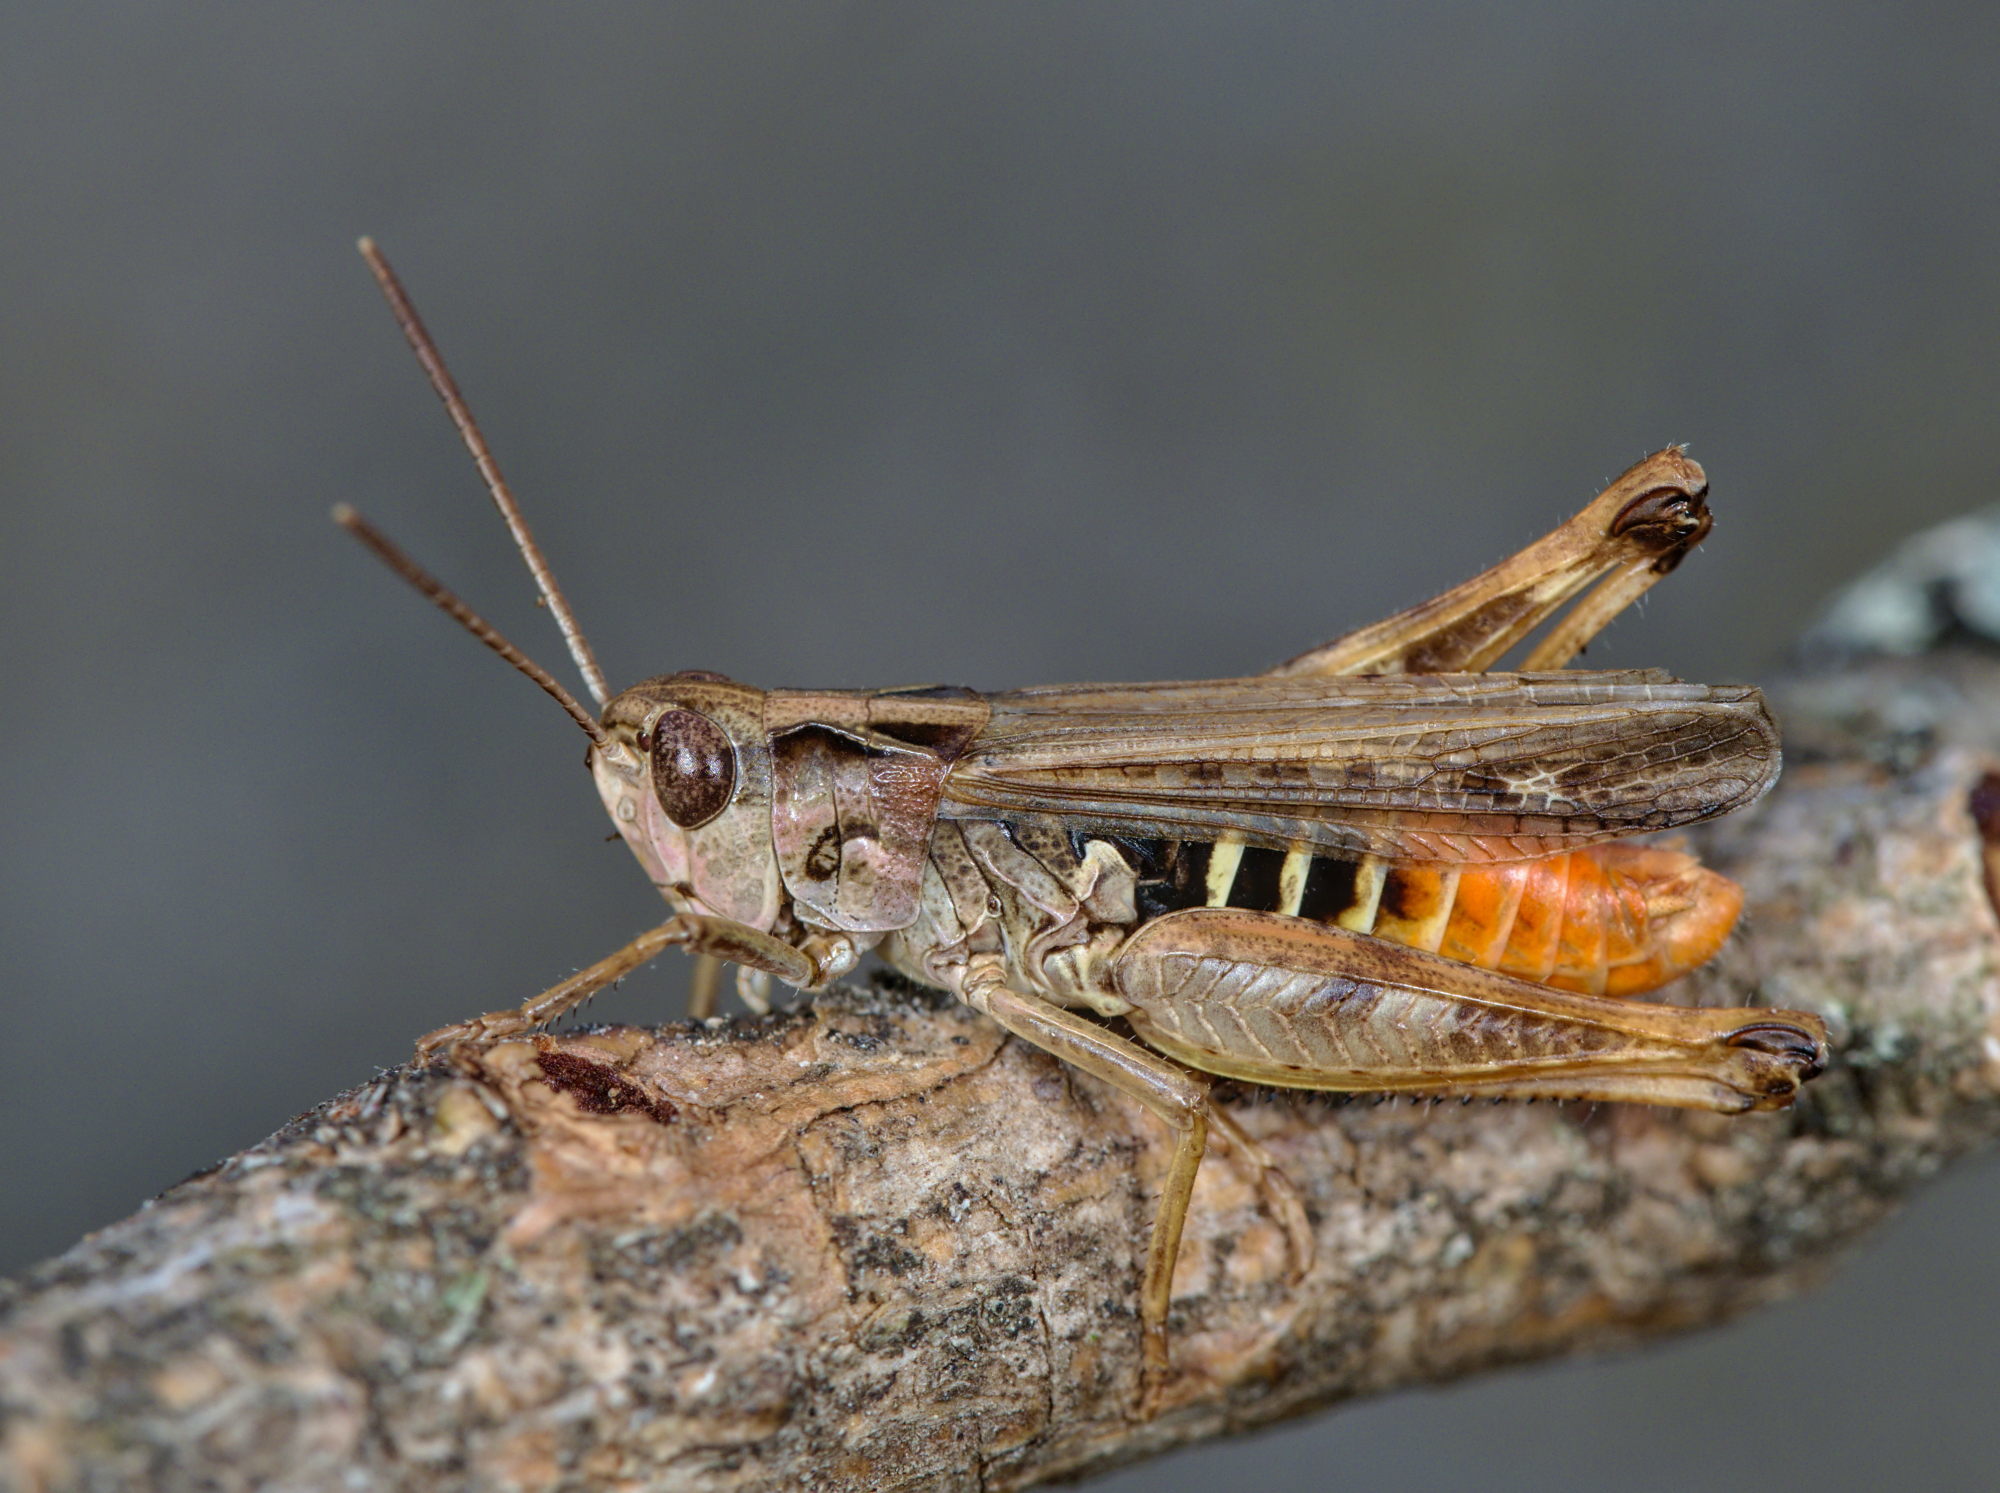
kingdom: Animalia
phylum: Arthropoda
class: Insecta
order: Orthoptera
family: Acrididae
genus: Omocestus
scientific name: Omocestus haemorrhoidalis
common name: Orange-tipped grasshopper
